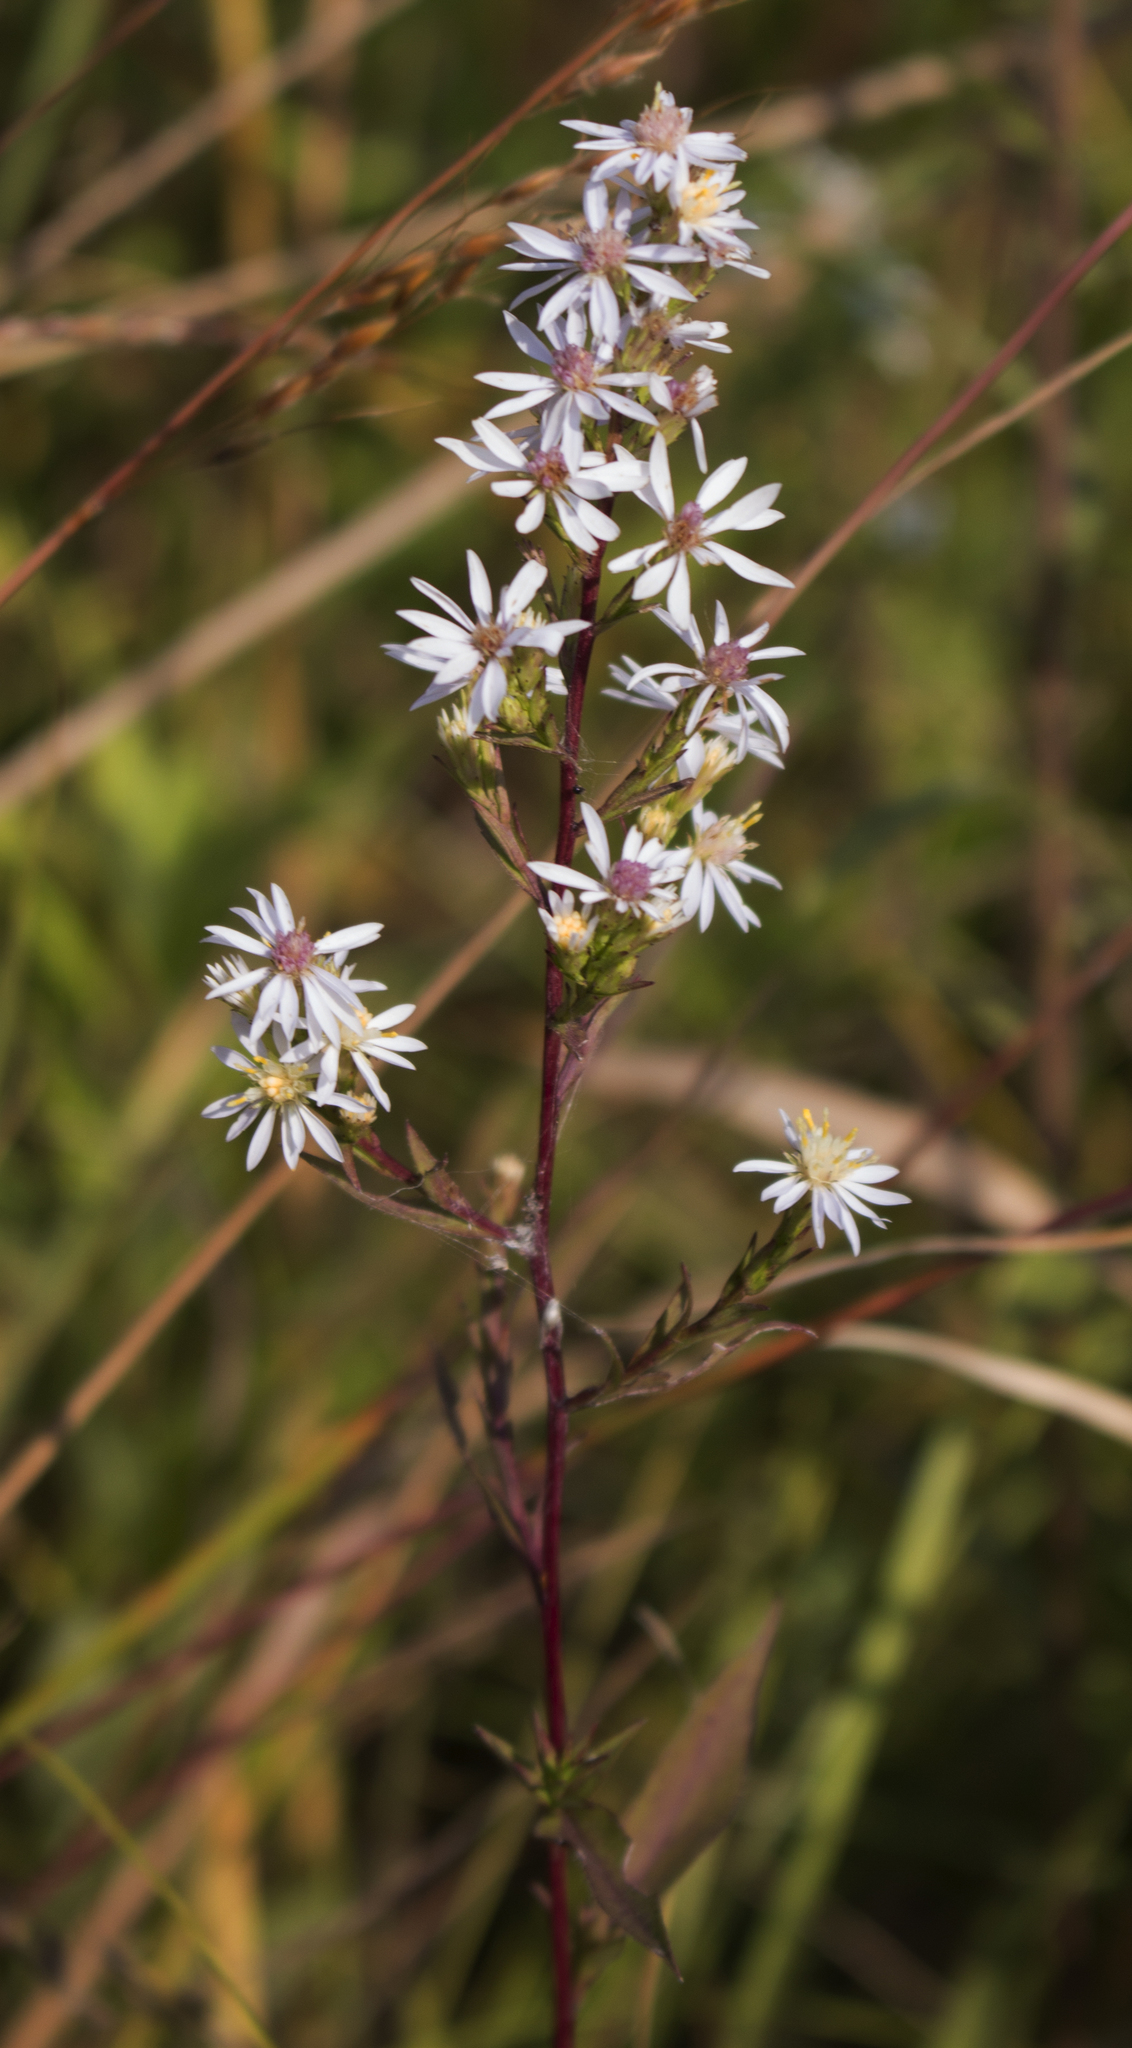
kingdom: Plantae
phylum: Tracheophyta
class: Magnoliopsida
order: Asterales
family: Asteraceae
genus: Symphyotrichum
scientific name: Symphyotrichum urophyllum
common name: Arrow-leaved aster
